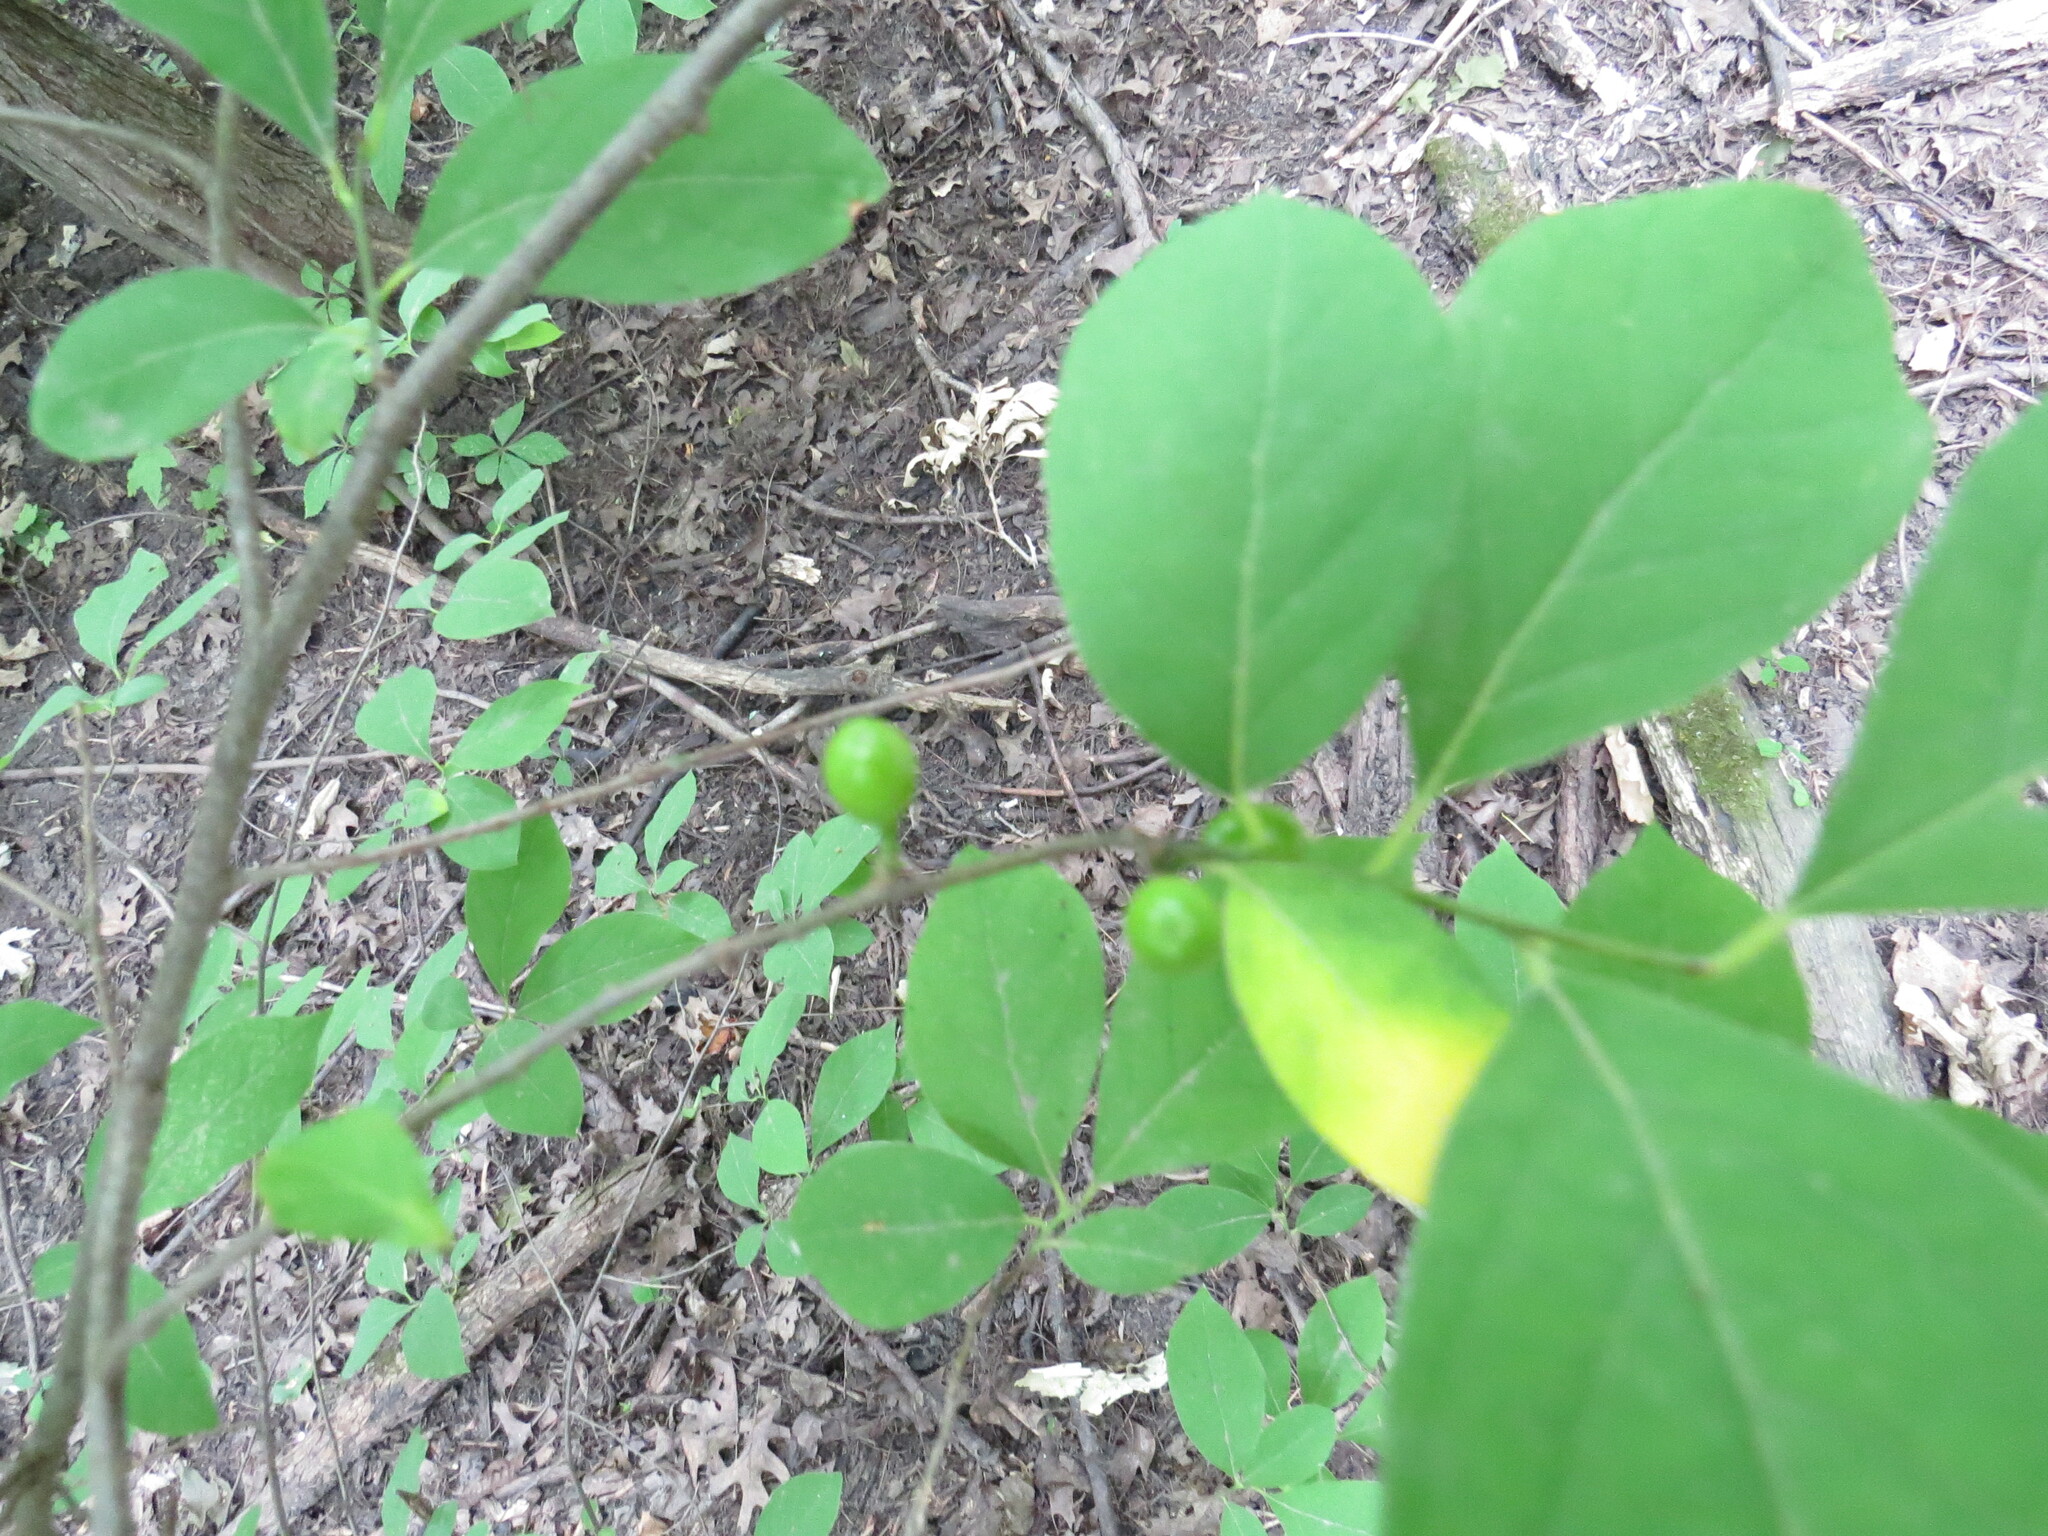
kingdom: Plantae
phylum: Tracheophyta
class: Magnoliopsida
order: Laurales
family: Lauraceae
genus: Lindera
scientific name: Lindera benzoin
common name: Spicebush
